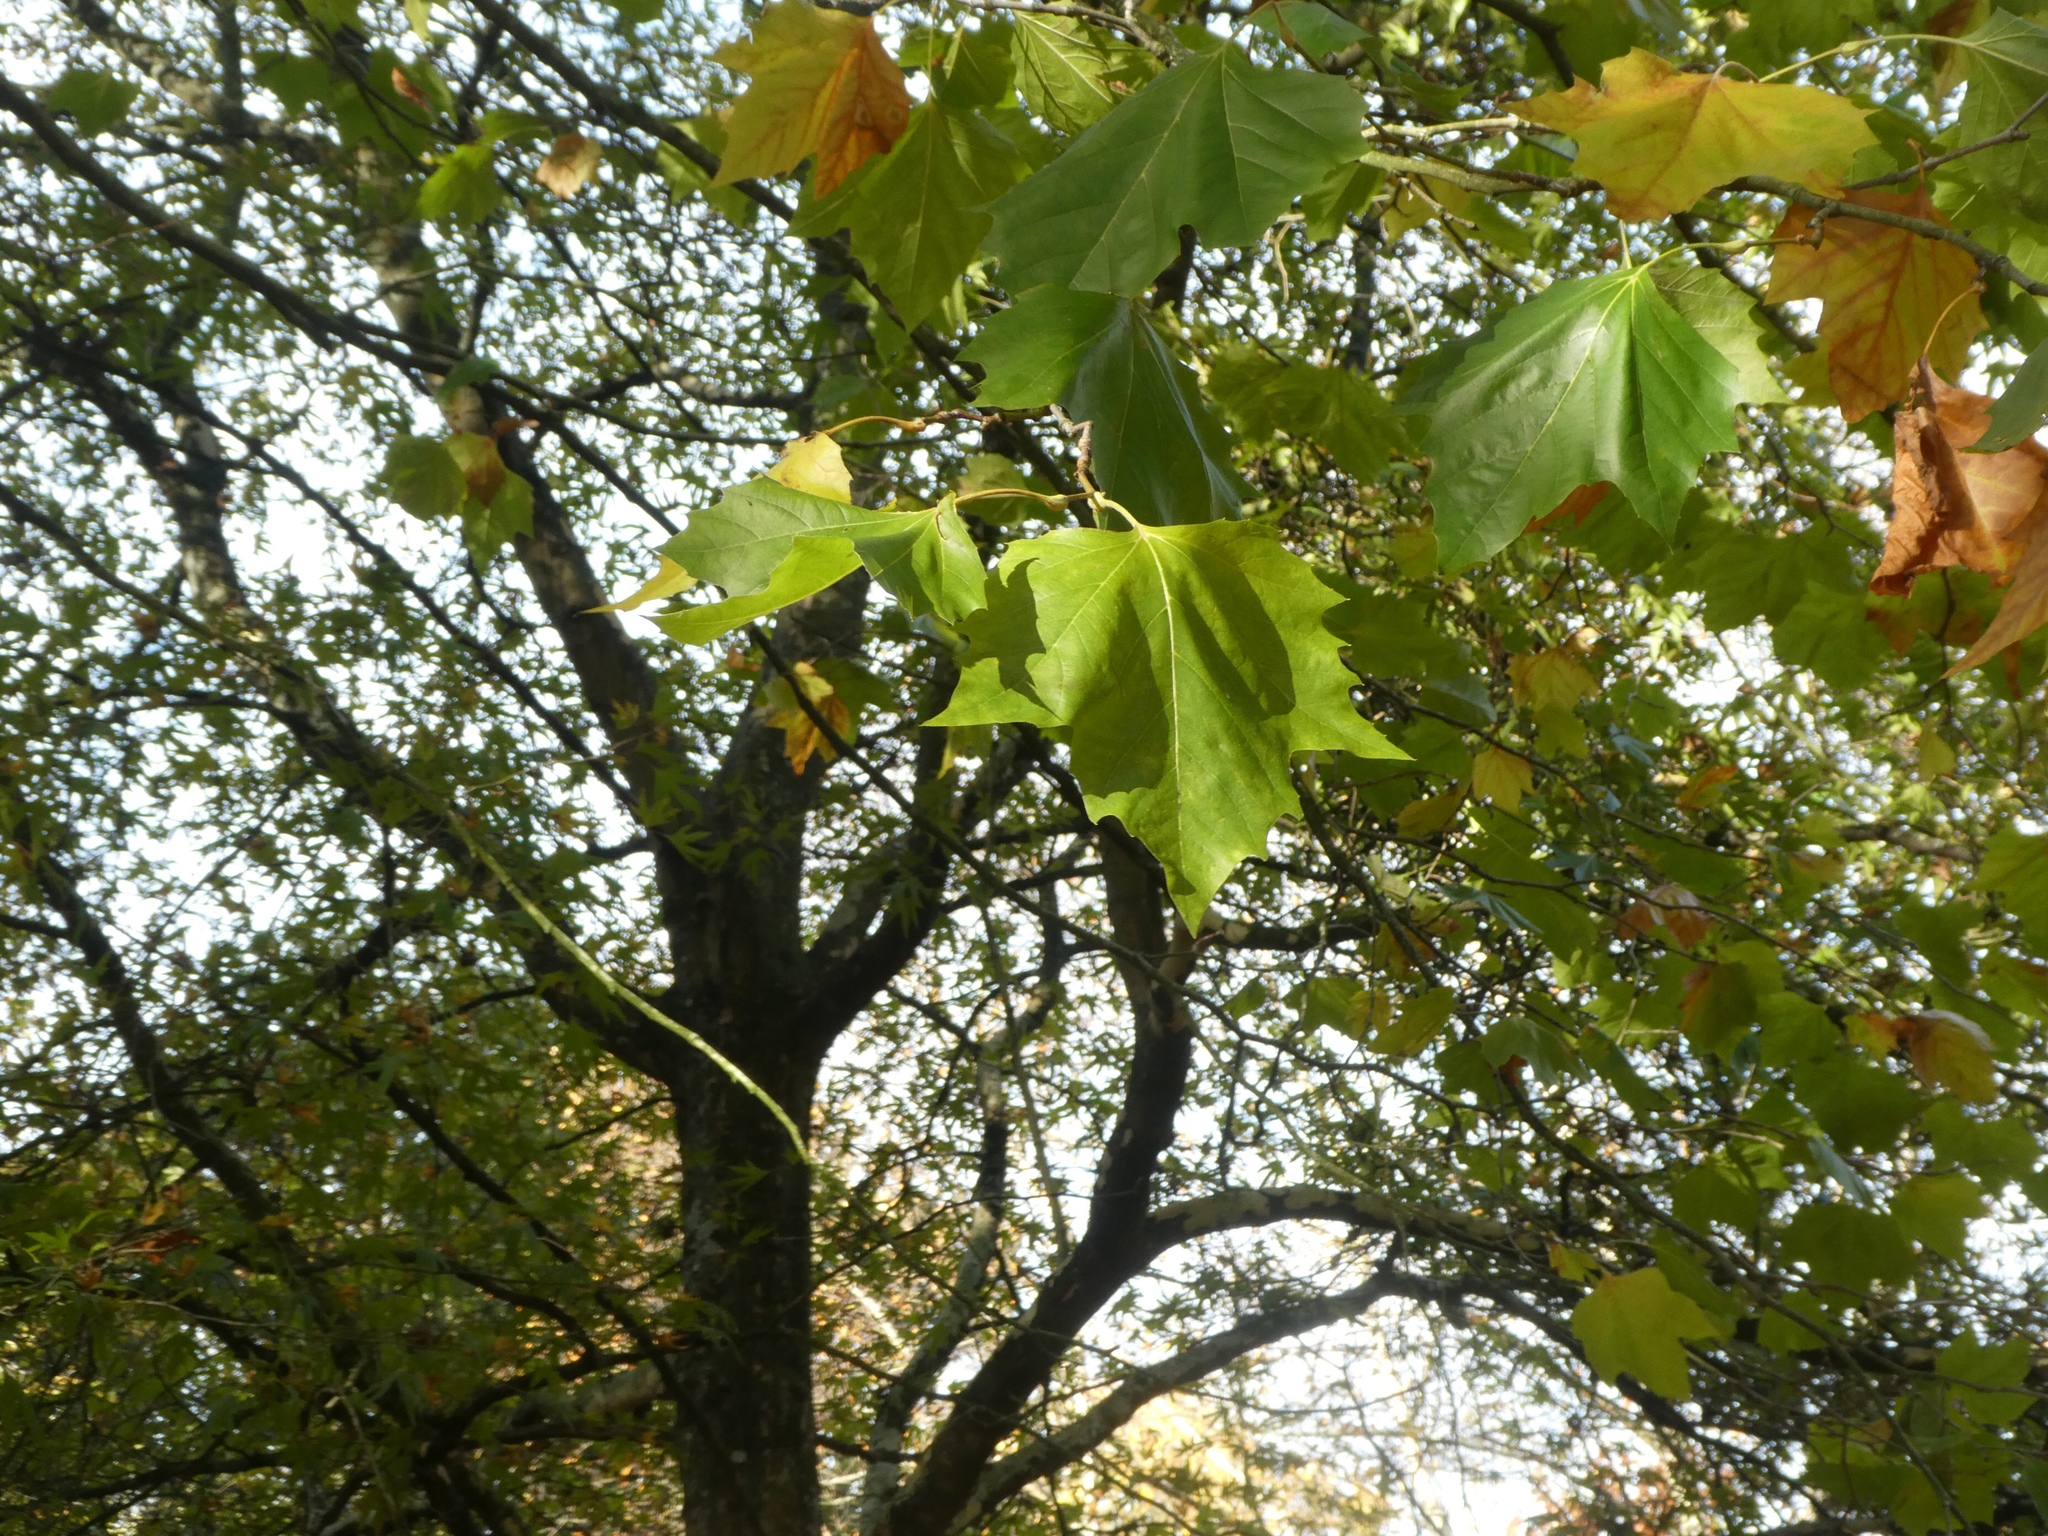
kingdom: Plantae
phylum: Tracheophyta
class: Magnoliopsida
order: Proteales
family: Platanaceae
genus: Platanus
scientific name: Platanus hispanica
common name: London plane
